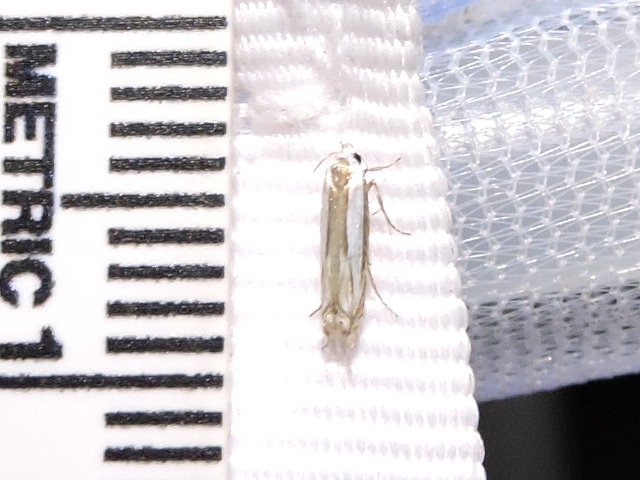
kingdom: Animalia
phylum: Arthropoda
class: Insecta
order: Lepidoptera
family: Gelechiidae
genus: Polyhymno
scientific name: Polyhymno acaciella
